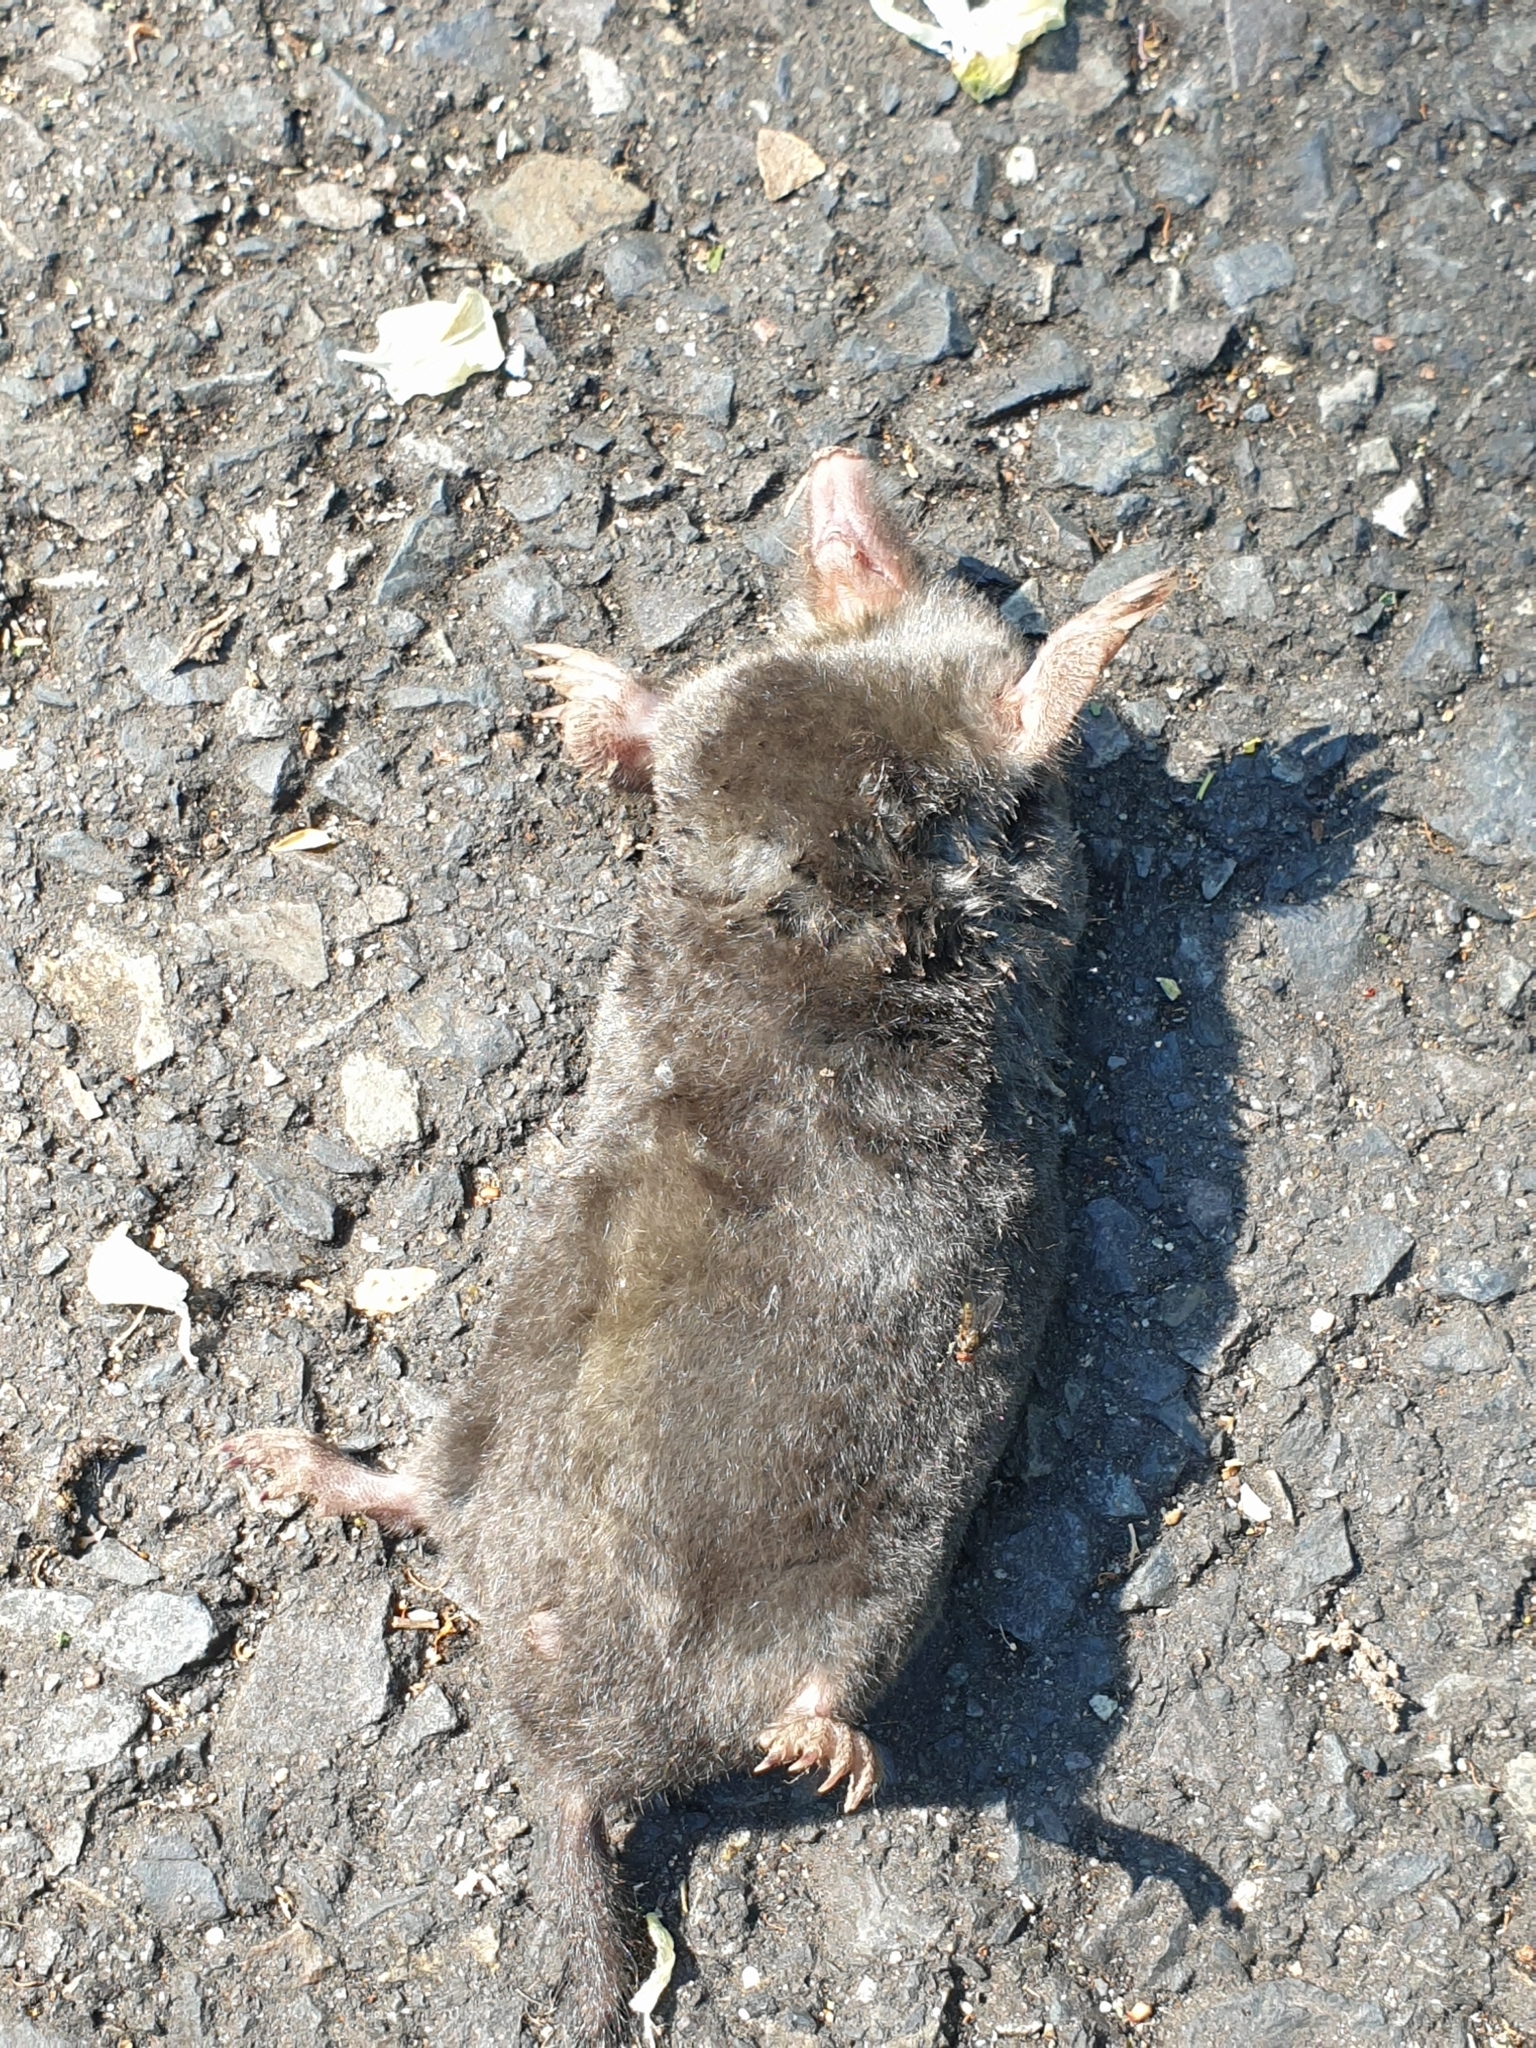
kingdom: Animalia
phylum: Chordata
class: Mammalia
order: Soricomorpha
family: Talpidae
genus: Talpa
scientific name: Talpa europaea
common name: European mole
